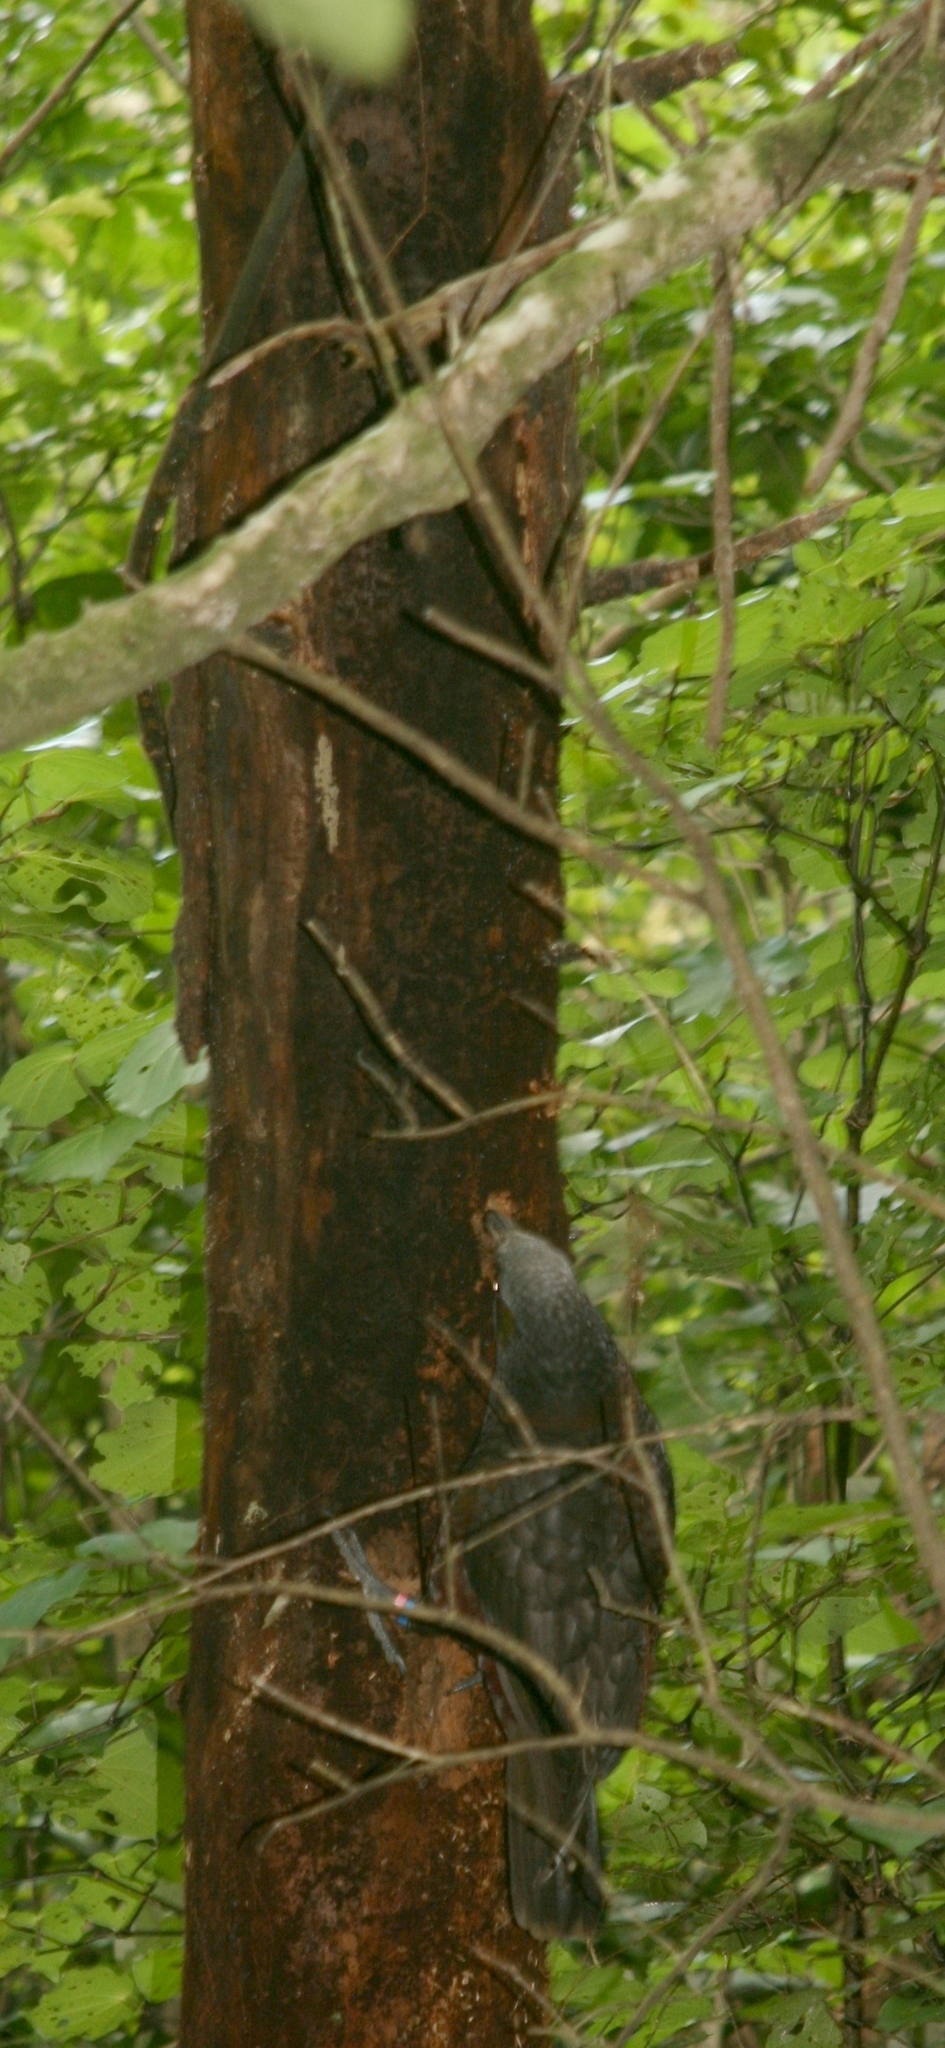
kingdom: Animalia
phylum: Chordata
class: Aves
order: Psittaciformes
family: Psittacidae
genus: Nestor
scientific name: Nestor meridionalis
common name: New zealand kaka
